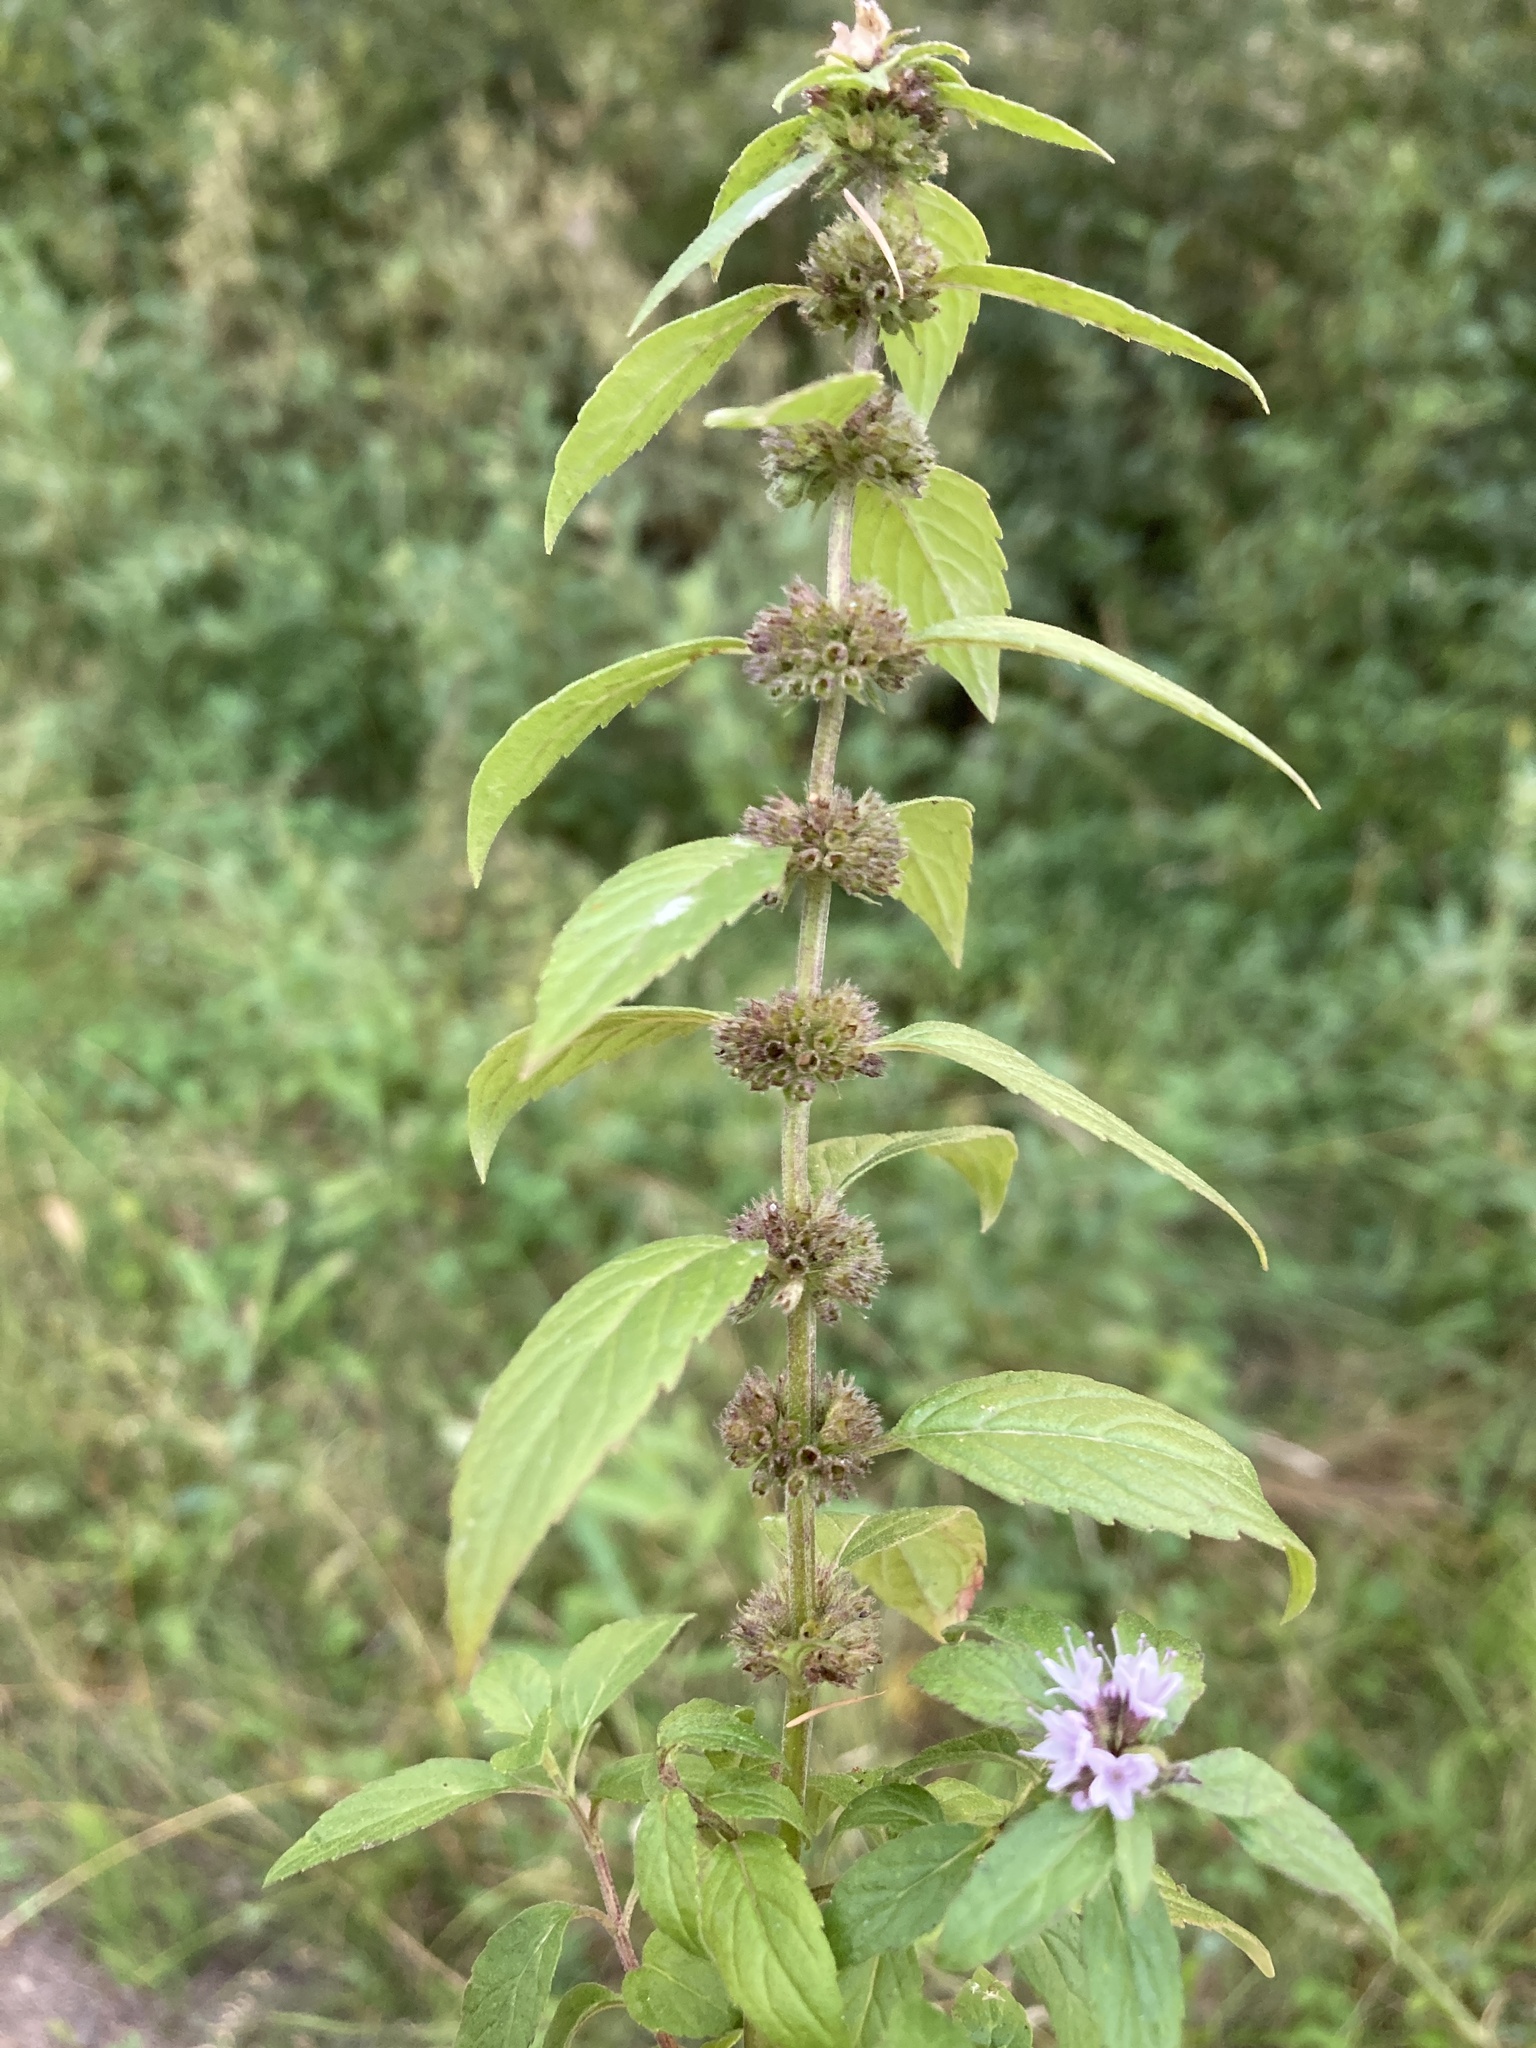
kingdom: Plantae
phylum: Tracheophyta
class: Magnoliopsida
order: Lamiales
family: Lamiaceae
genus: Mentha
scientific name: Mentha canadensis
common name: American corn mint
